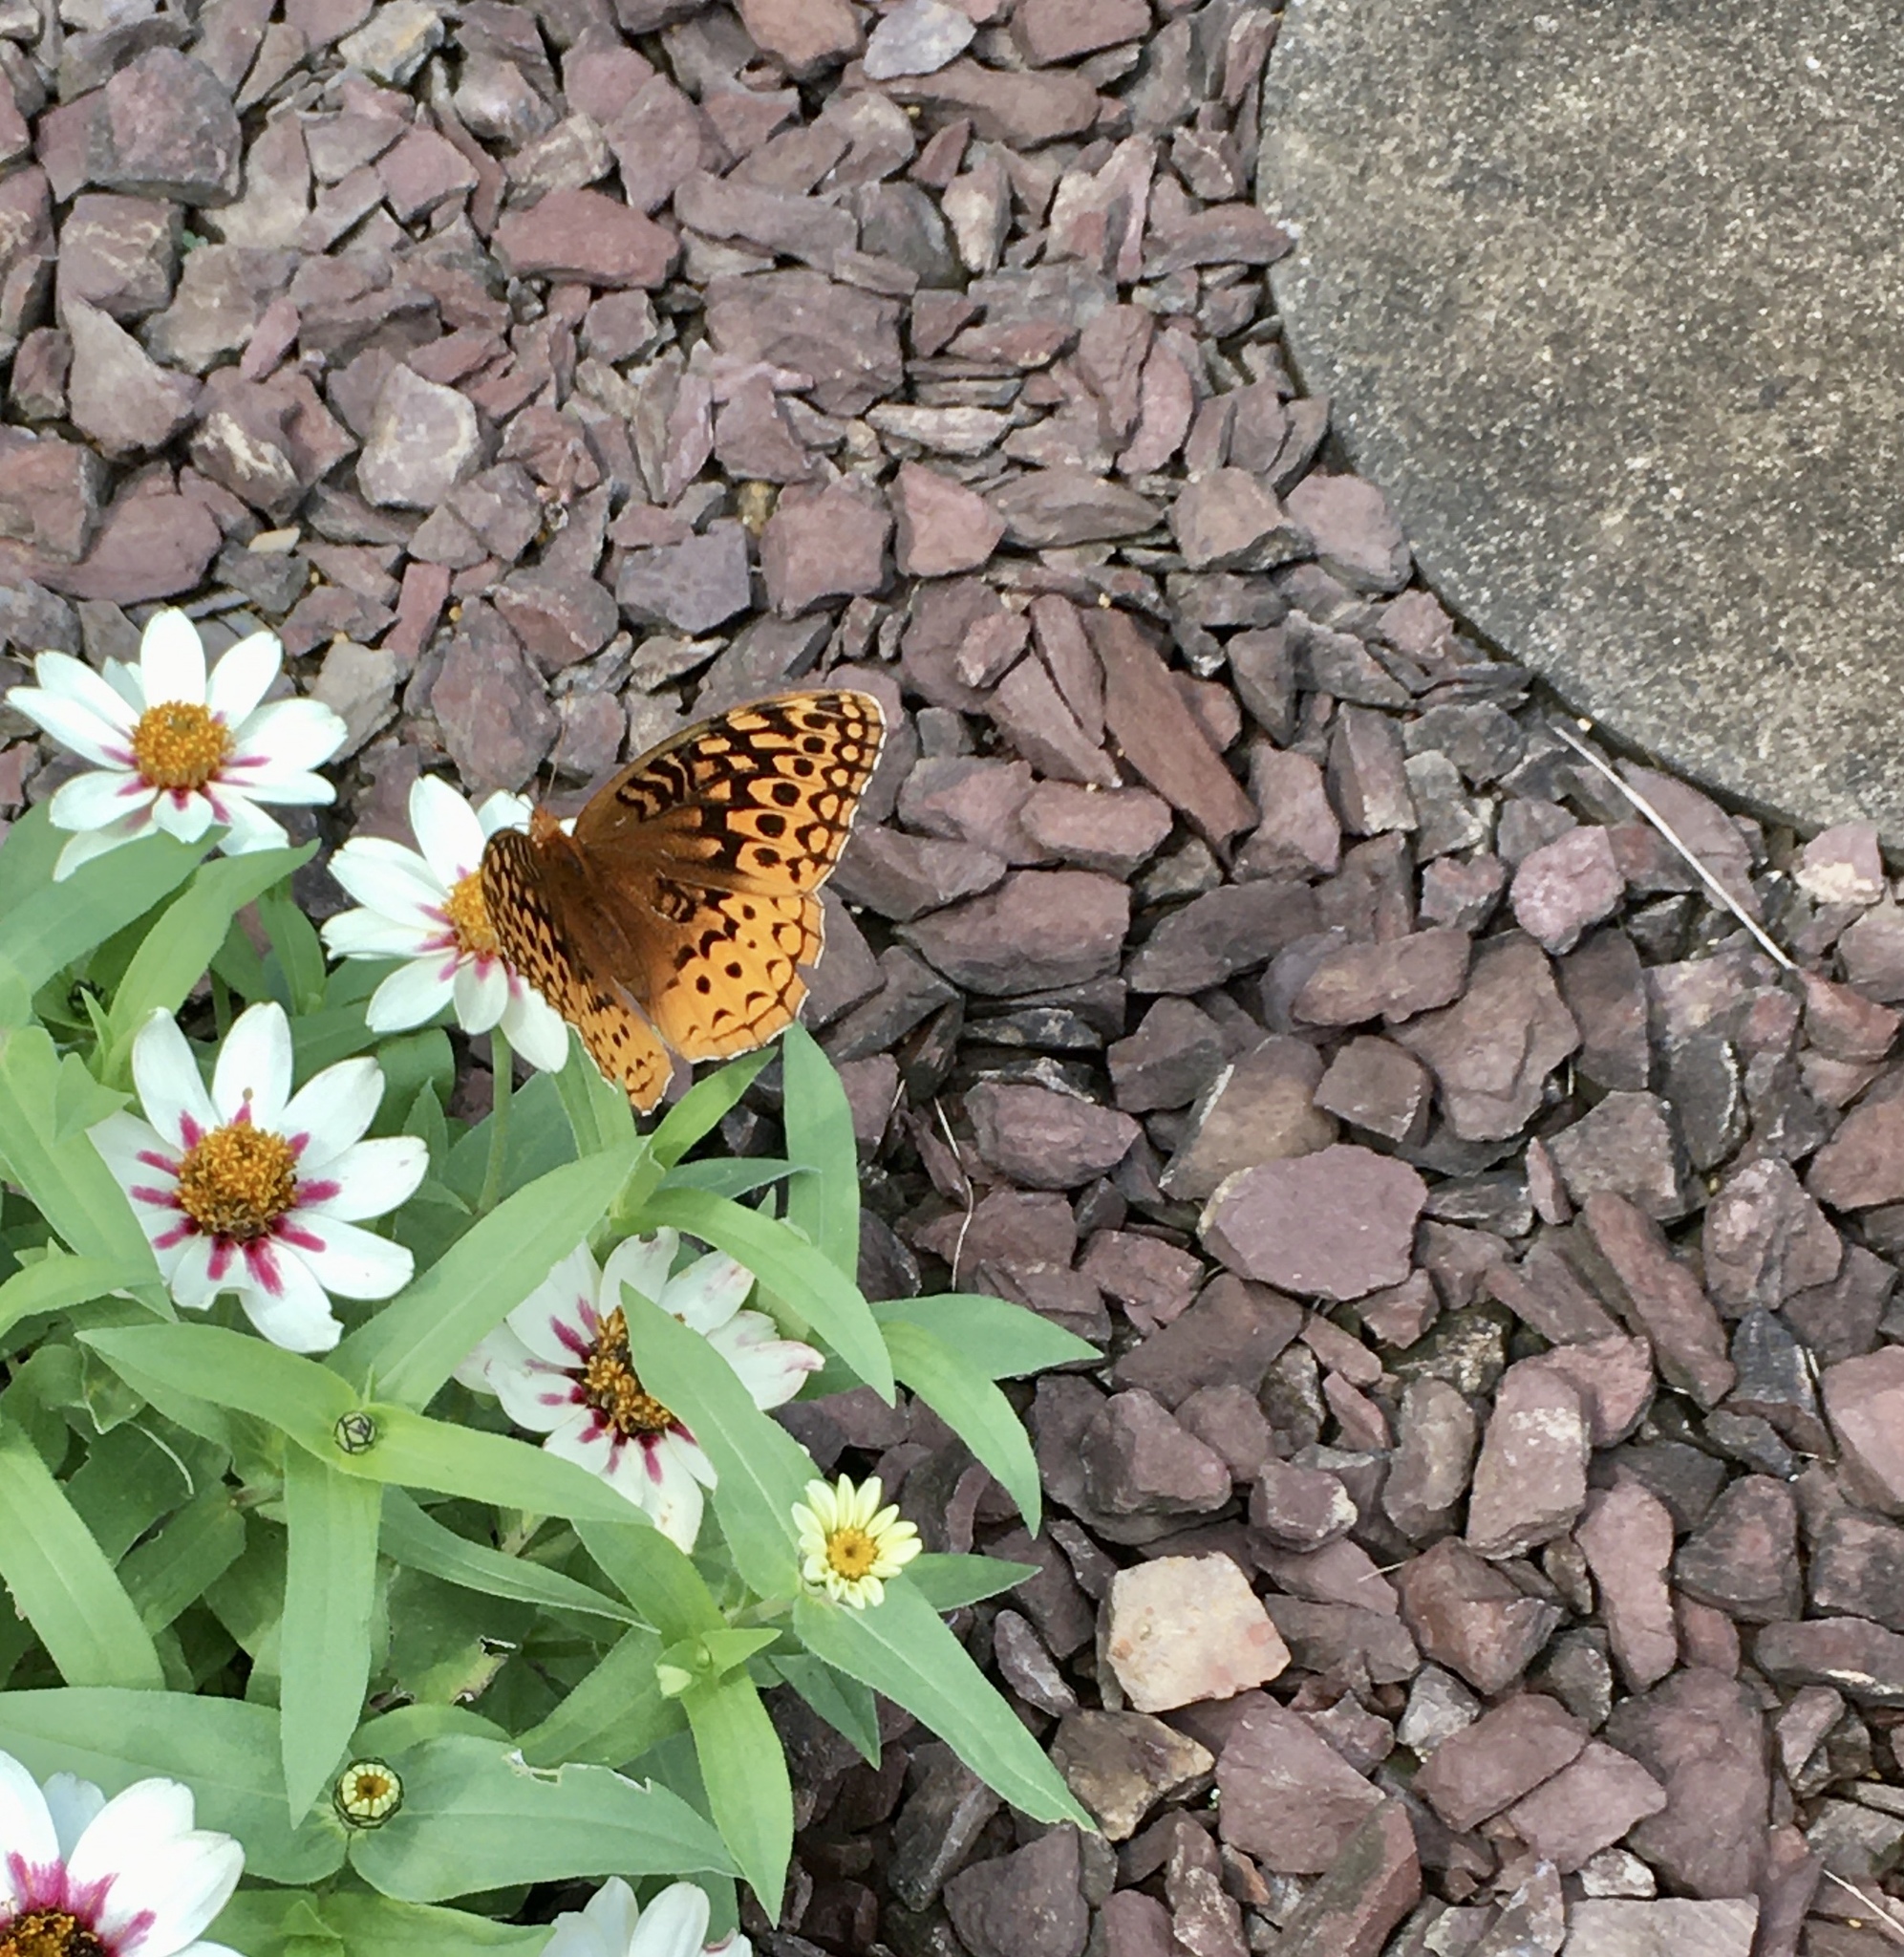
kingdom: Animalia
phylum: Arthropoda
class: Insecta
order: Lepidoptera
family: Nymphalidae
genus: Speyeria
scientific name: Speyeria cybele
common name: Great spangled fritillary
